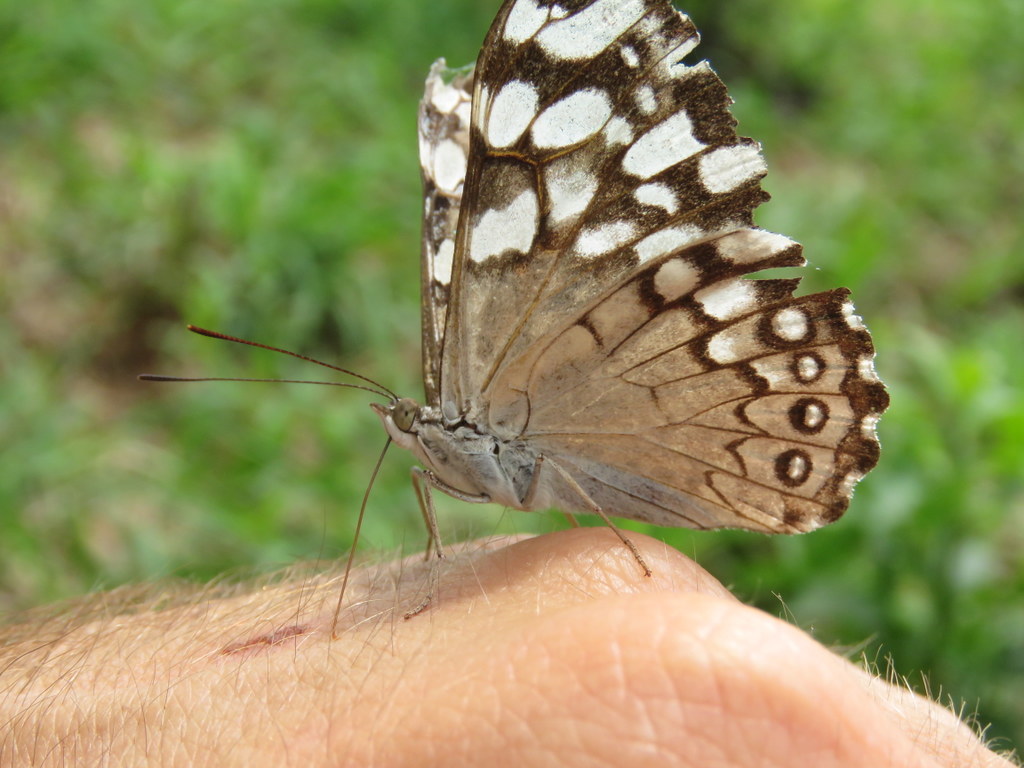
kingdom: Animalia
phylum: Arthropoda
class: Insecta
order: Lepidoptera
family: Nymphalidae
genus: Hamadryas
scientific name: Hamadryas epinome
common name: Epinome cracker
